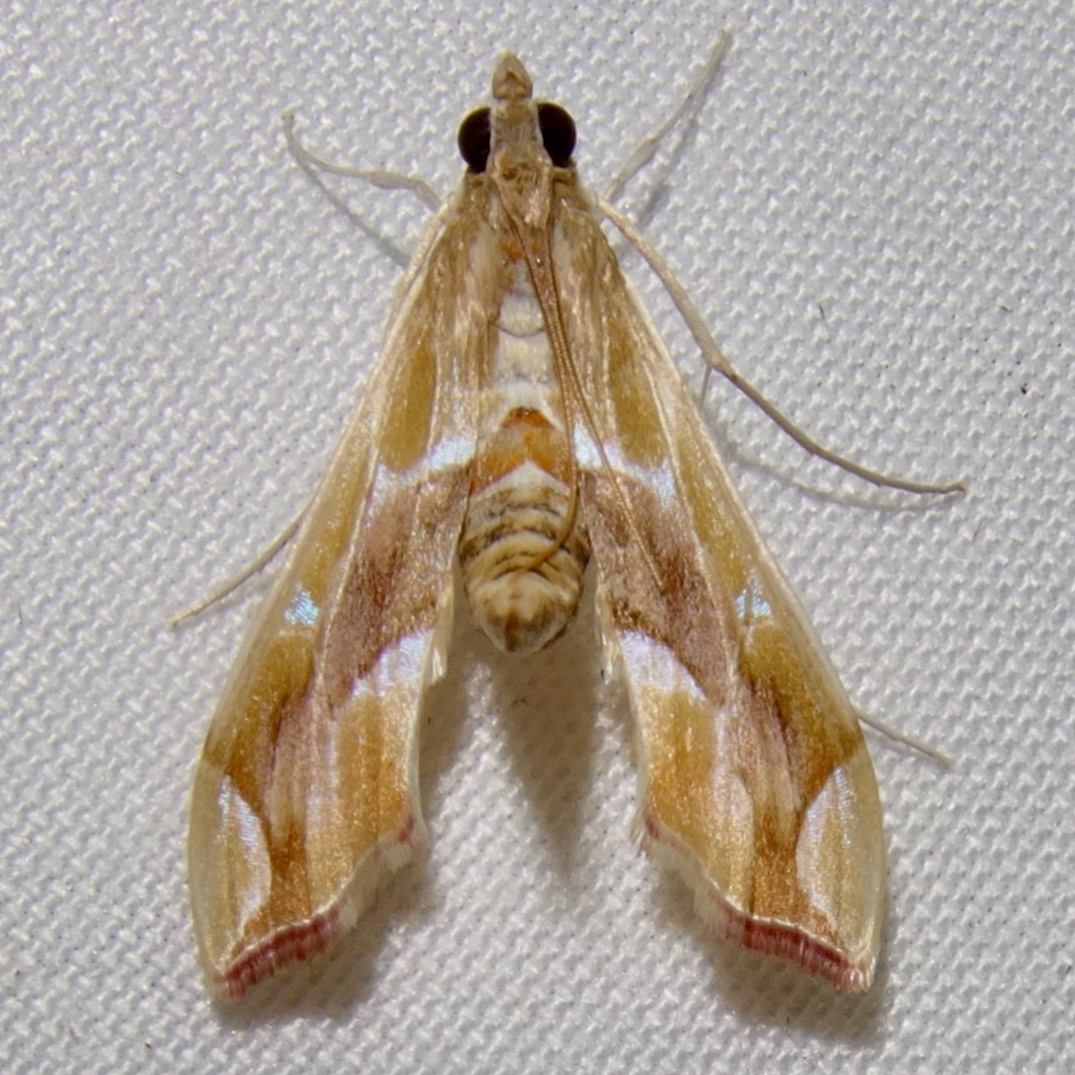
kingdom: Animalia
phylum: Arthropoda
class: Insecta
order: Lepidoptera
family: Crambidae
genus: Agathodes
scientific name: Agathodes monstralis
